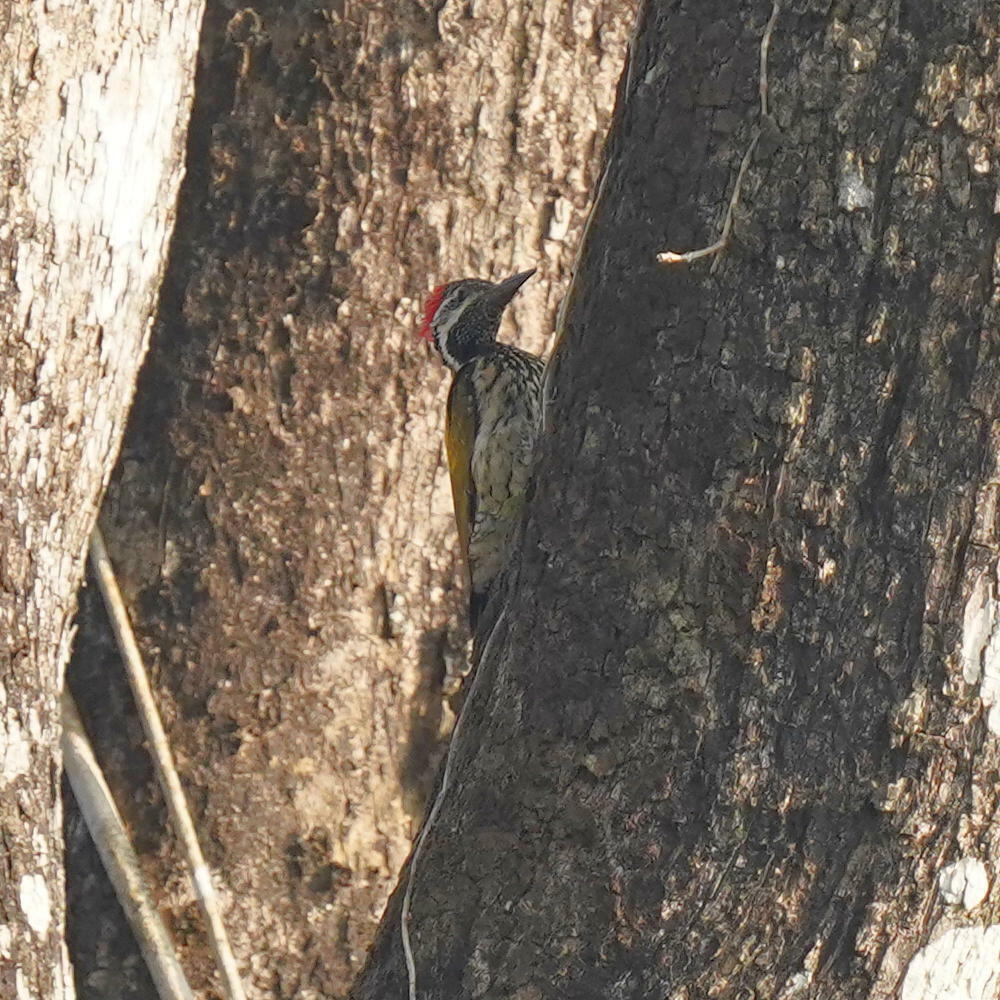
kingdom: Animalia
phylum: Chordata
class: Aves
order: Piciformes
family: Picidae
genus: Dinopium
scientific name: Dinopium benghalense
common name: Black-rumped flameback
